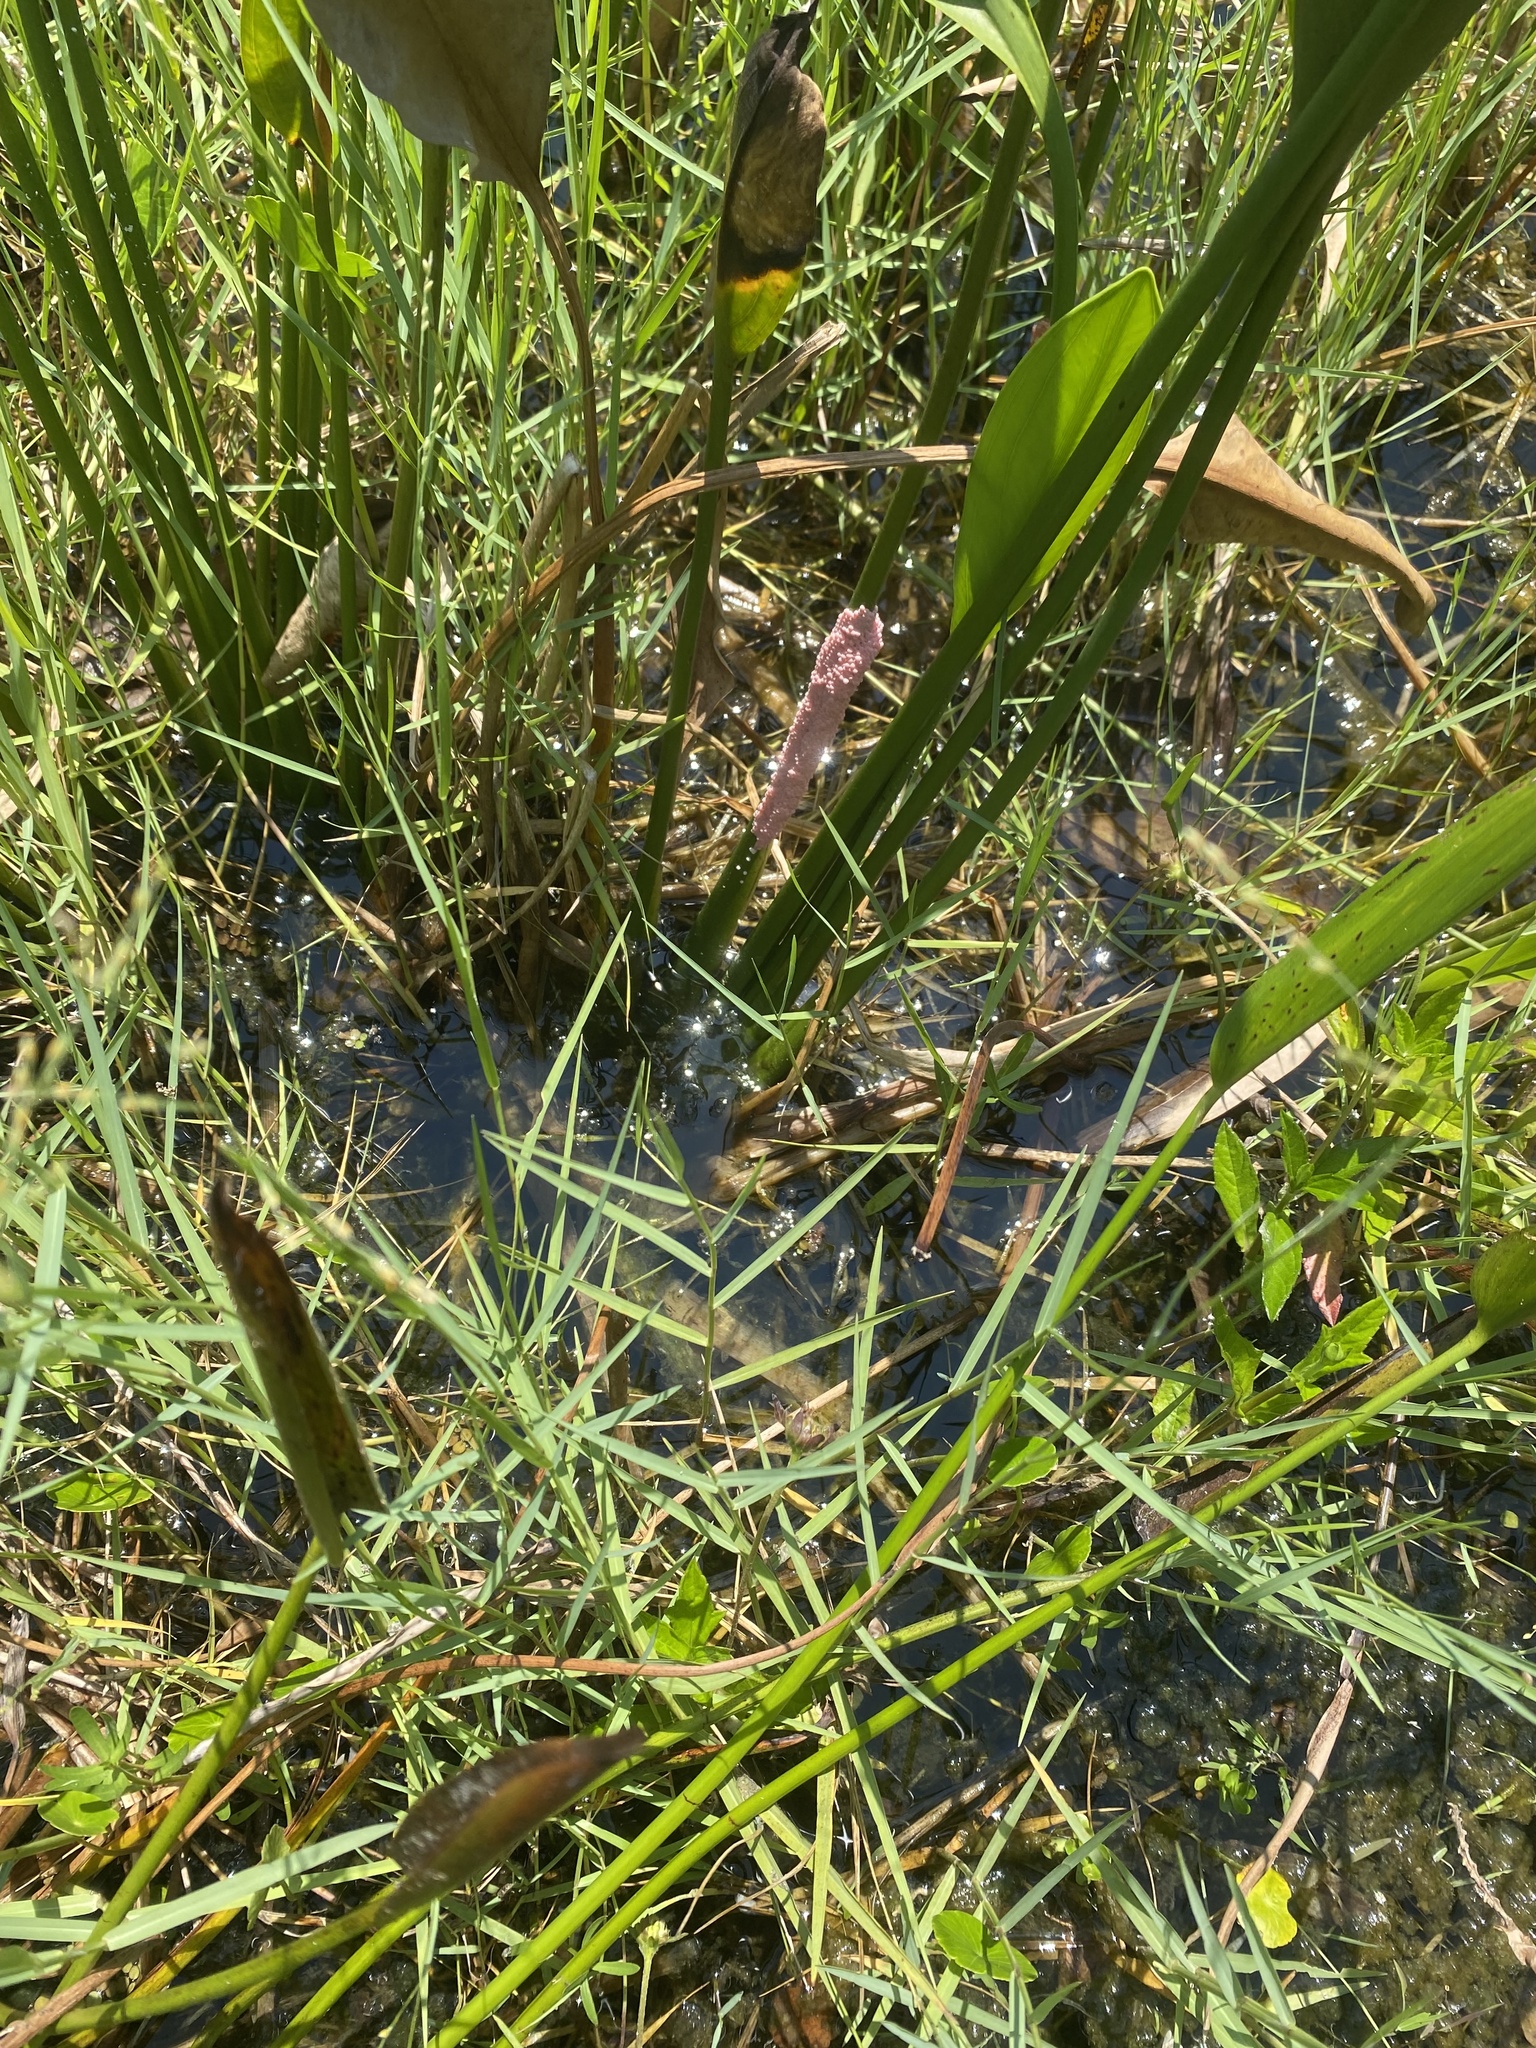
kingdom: Animalia
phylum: Mollusca
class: Gastropoda
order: Architaenioglossa
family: Ampullariidae
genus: Pomacea
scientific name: Pomacea maculata
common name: Giant applesnail
